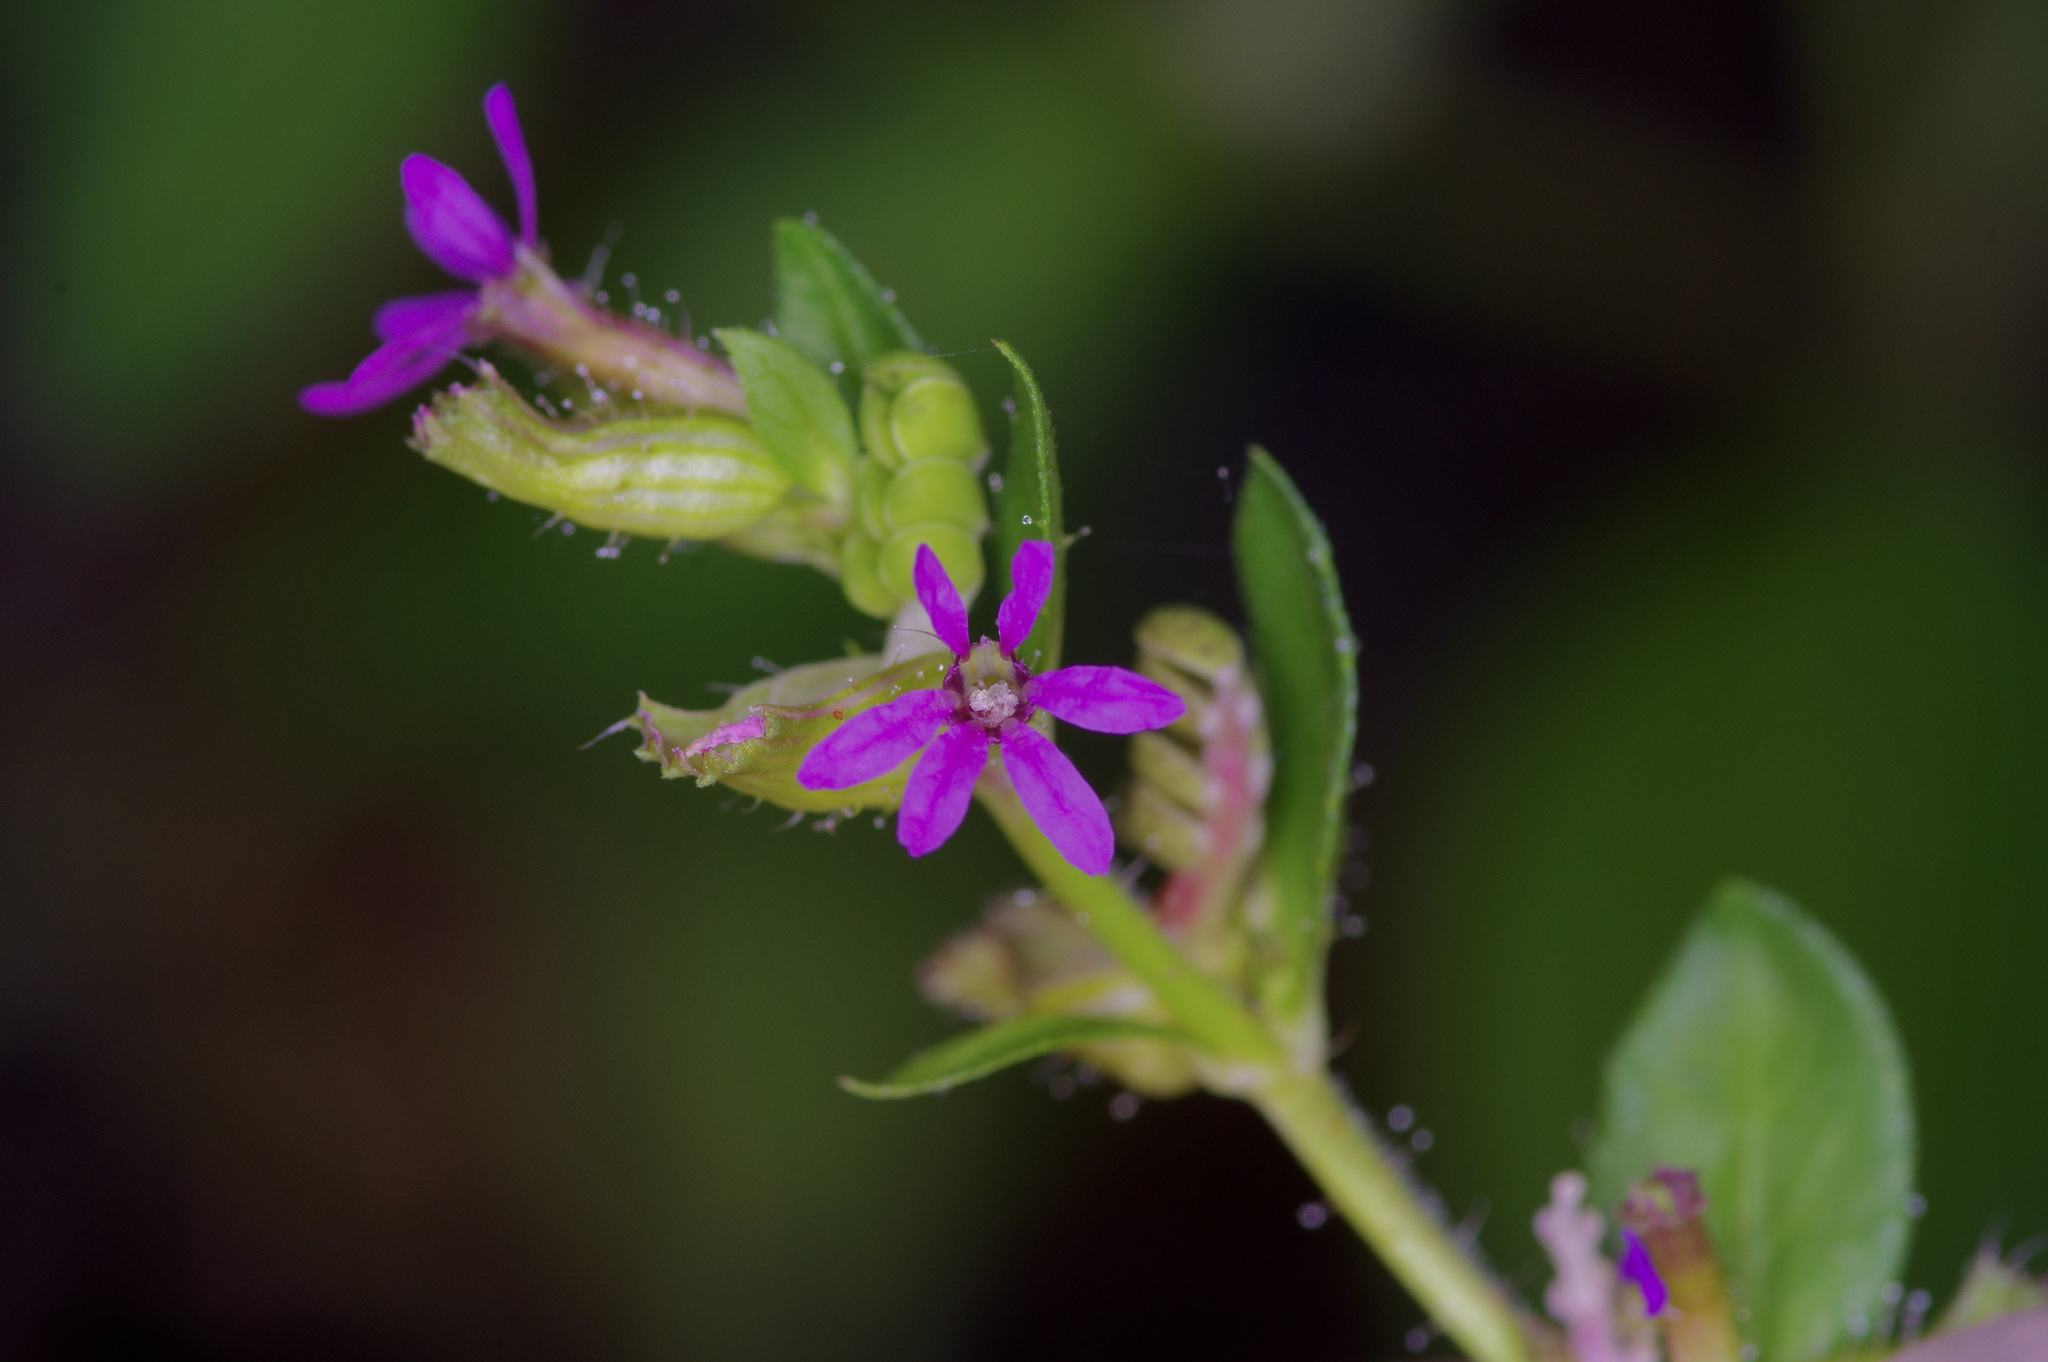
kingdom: Plantae
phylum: Tracheophyta
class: Magnoliopsida
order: Myrtales
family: Lythraceae
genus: Cuphea
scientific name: Cuphea carthagenensis
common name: Colombian waxweed
